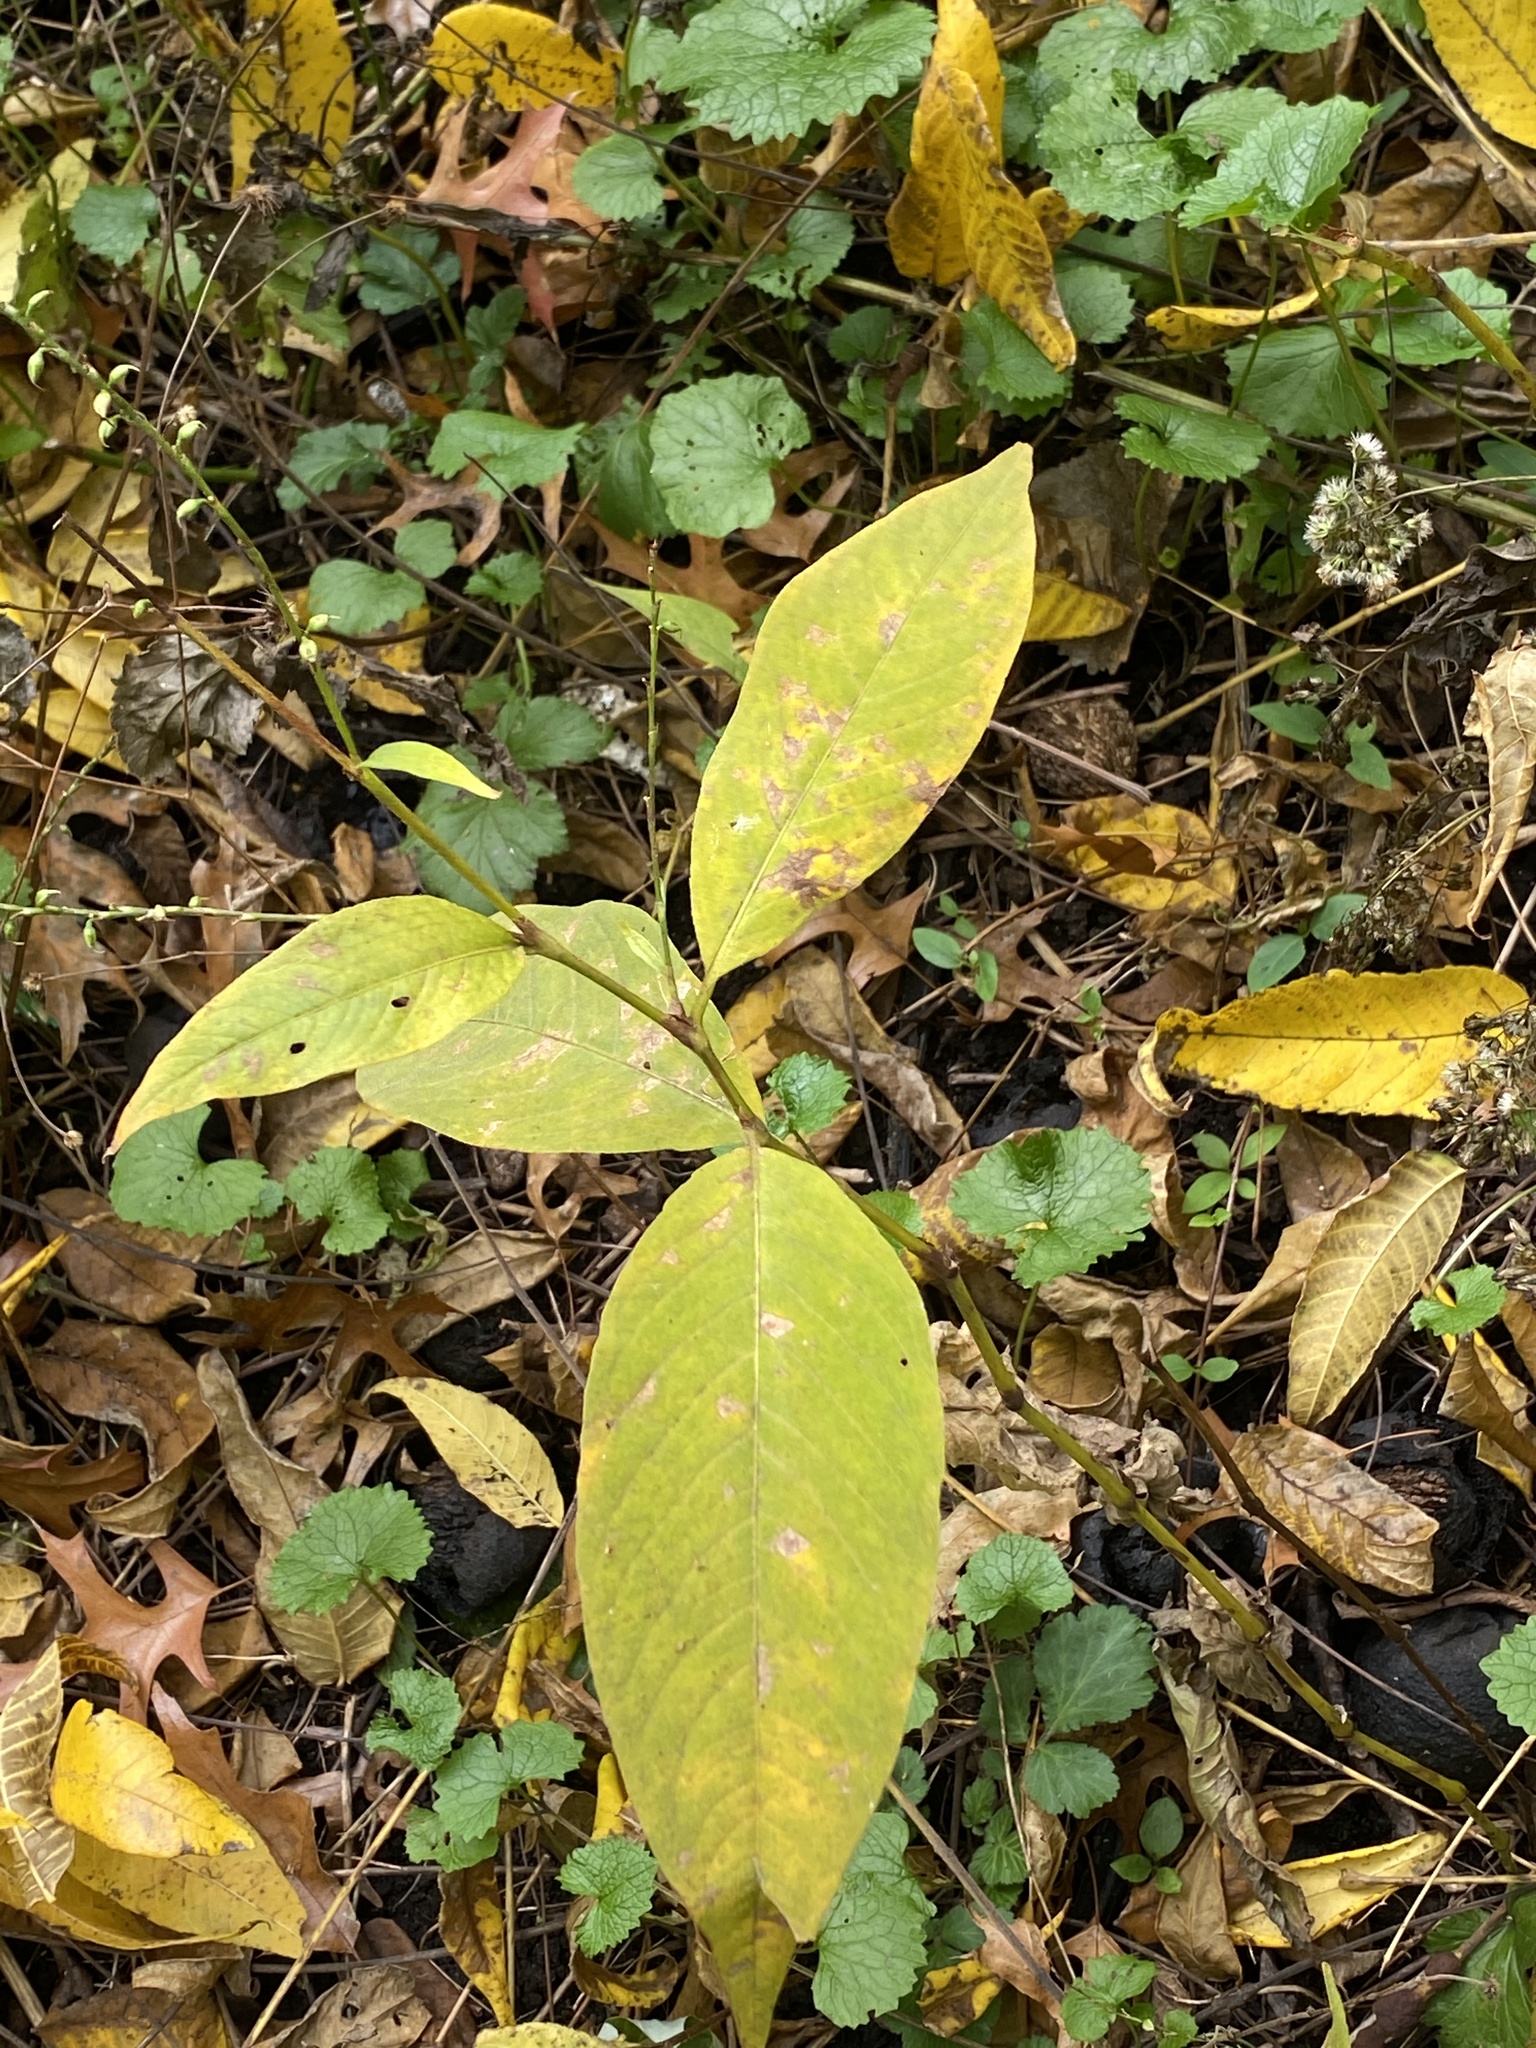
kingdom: Plantae
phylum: Tracheophyta
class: Magnoliopsida
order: Caryophyllales
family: Polygonaceae
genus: Persicaria
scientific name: Persicaria virginiana
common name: Jumpseed
